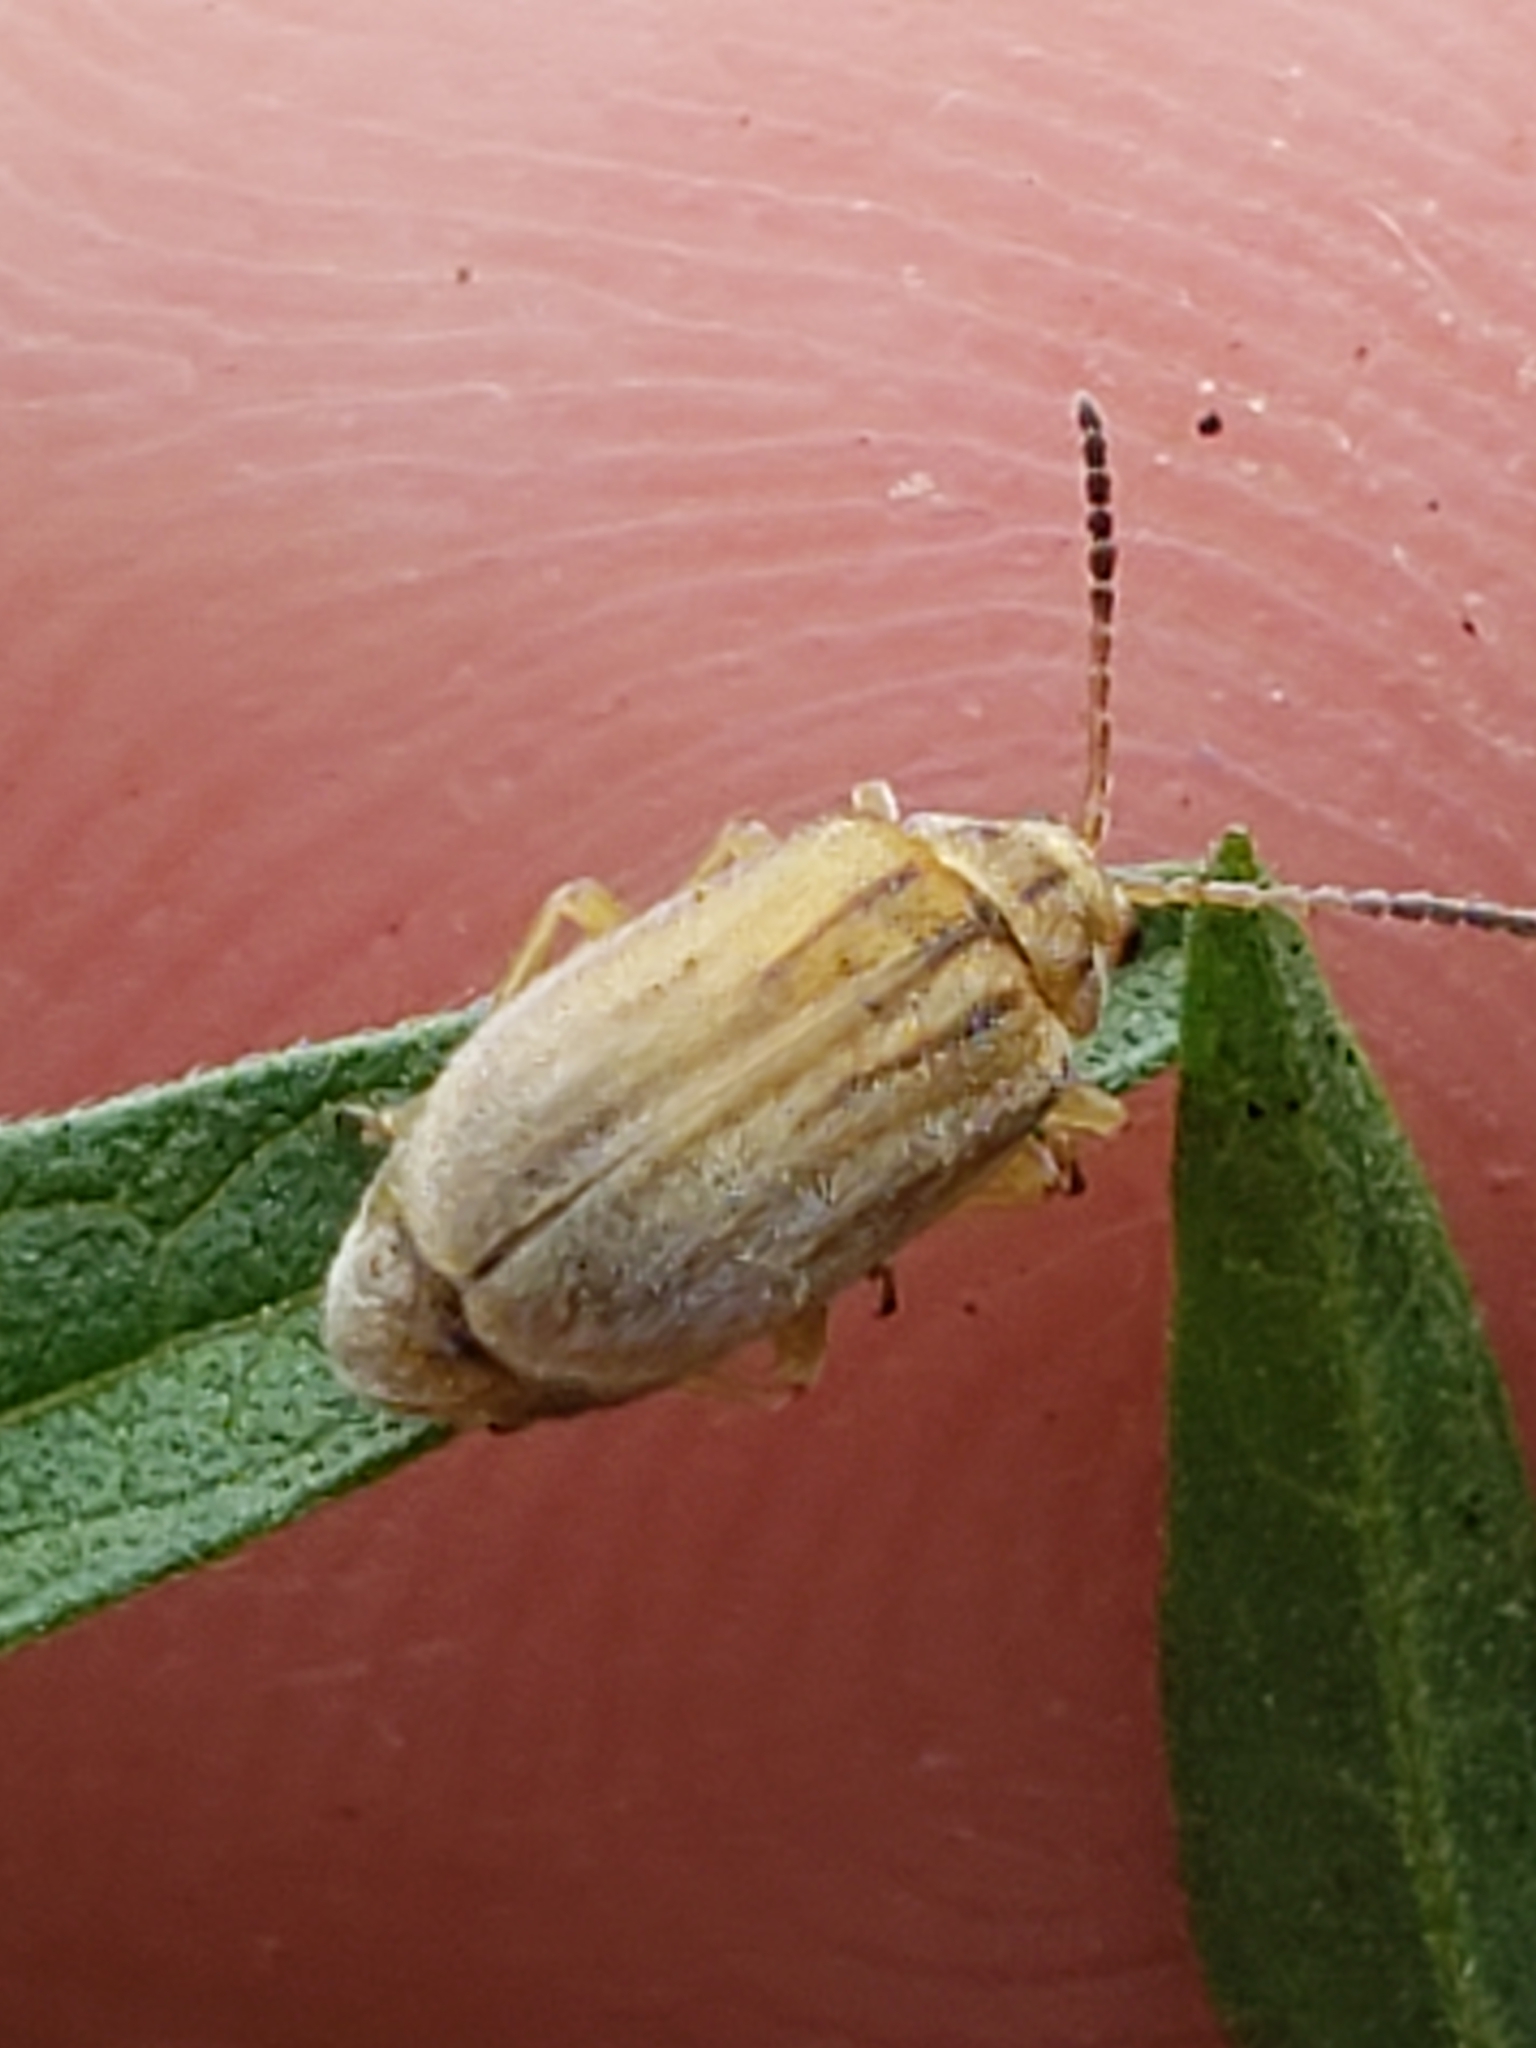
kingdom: Animalia
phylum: Arthropoda
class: Insecta
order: Coleoptera
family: Chrysomelidae
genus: Ophraella
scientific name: Ophraella communa
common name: Ragweed leaf beetle
